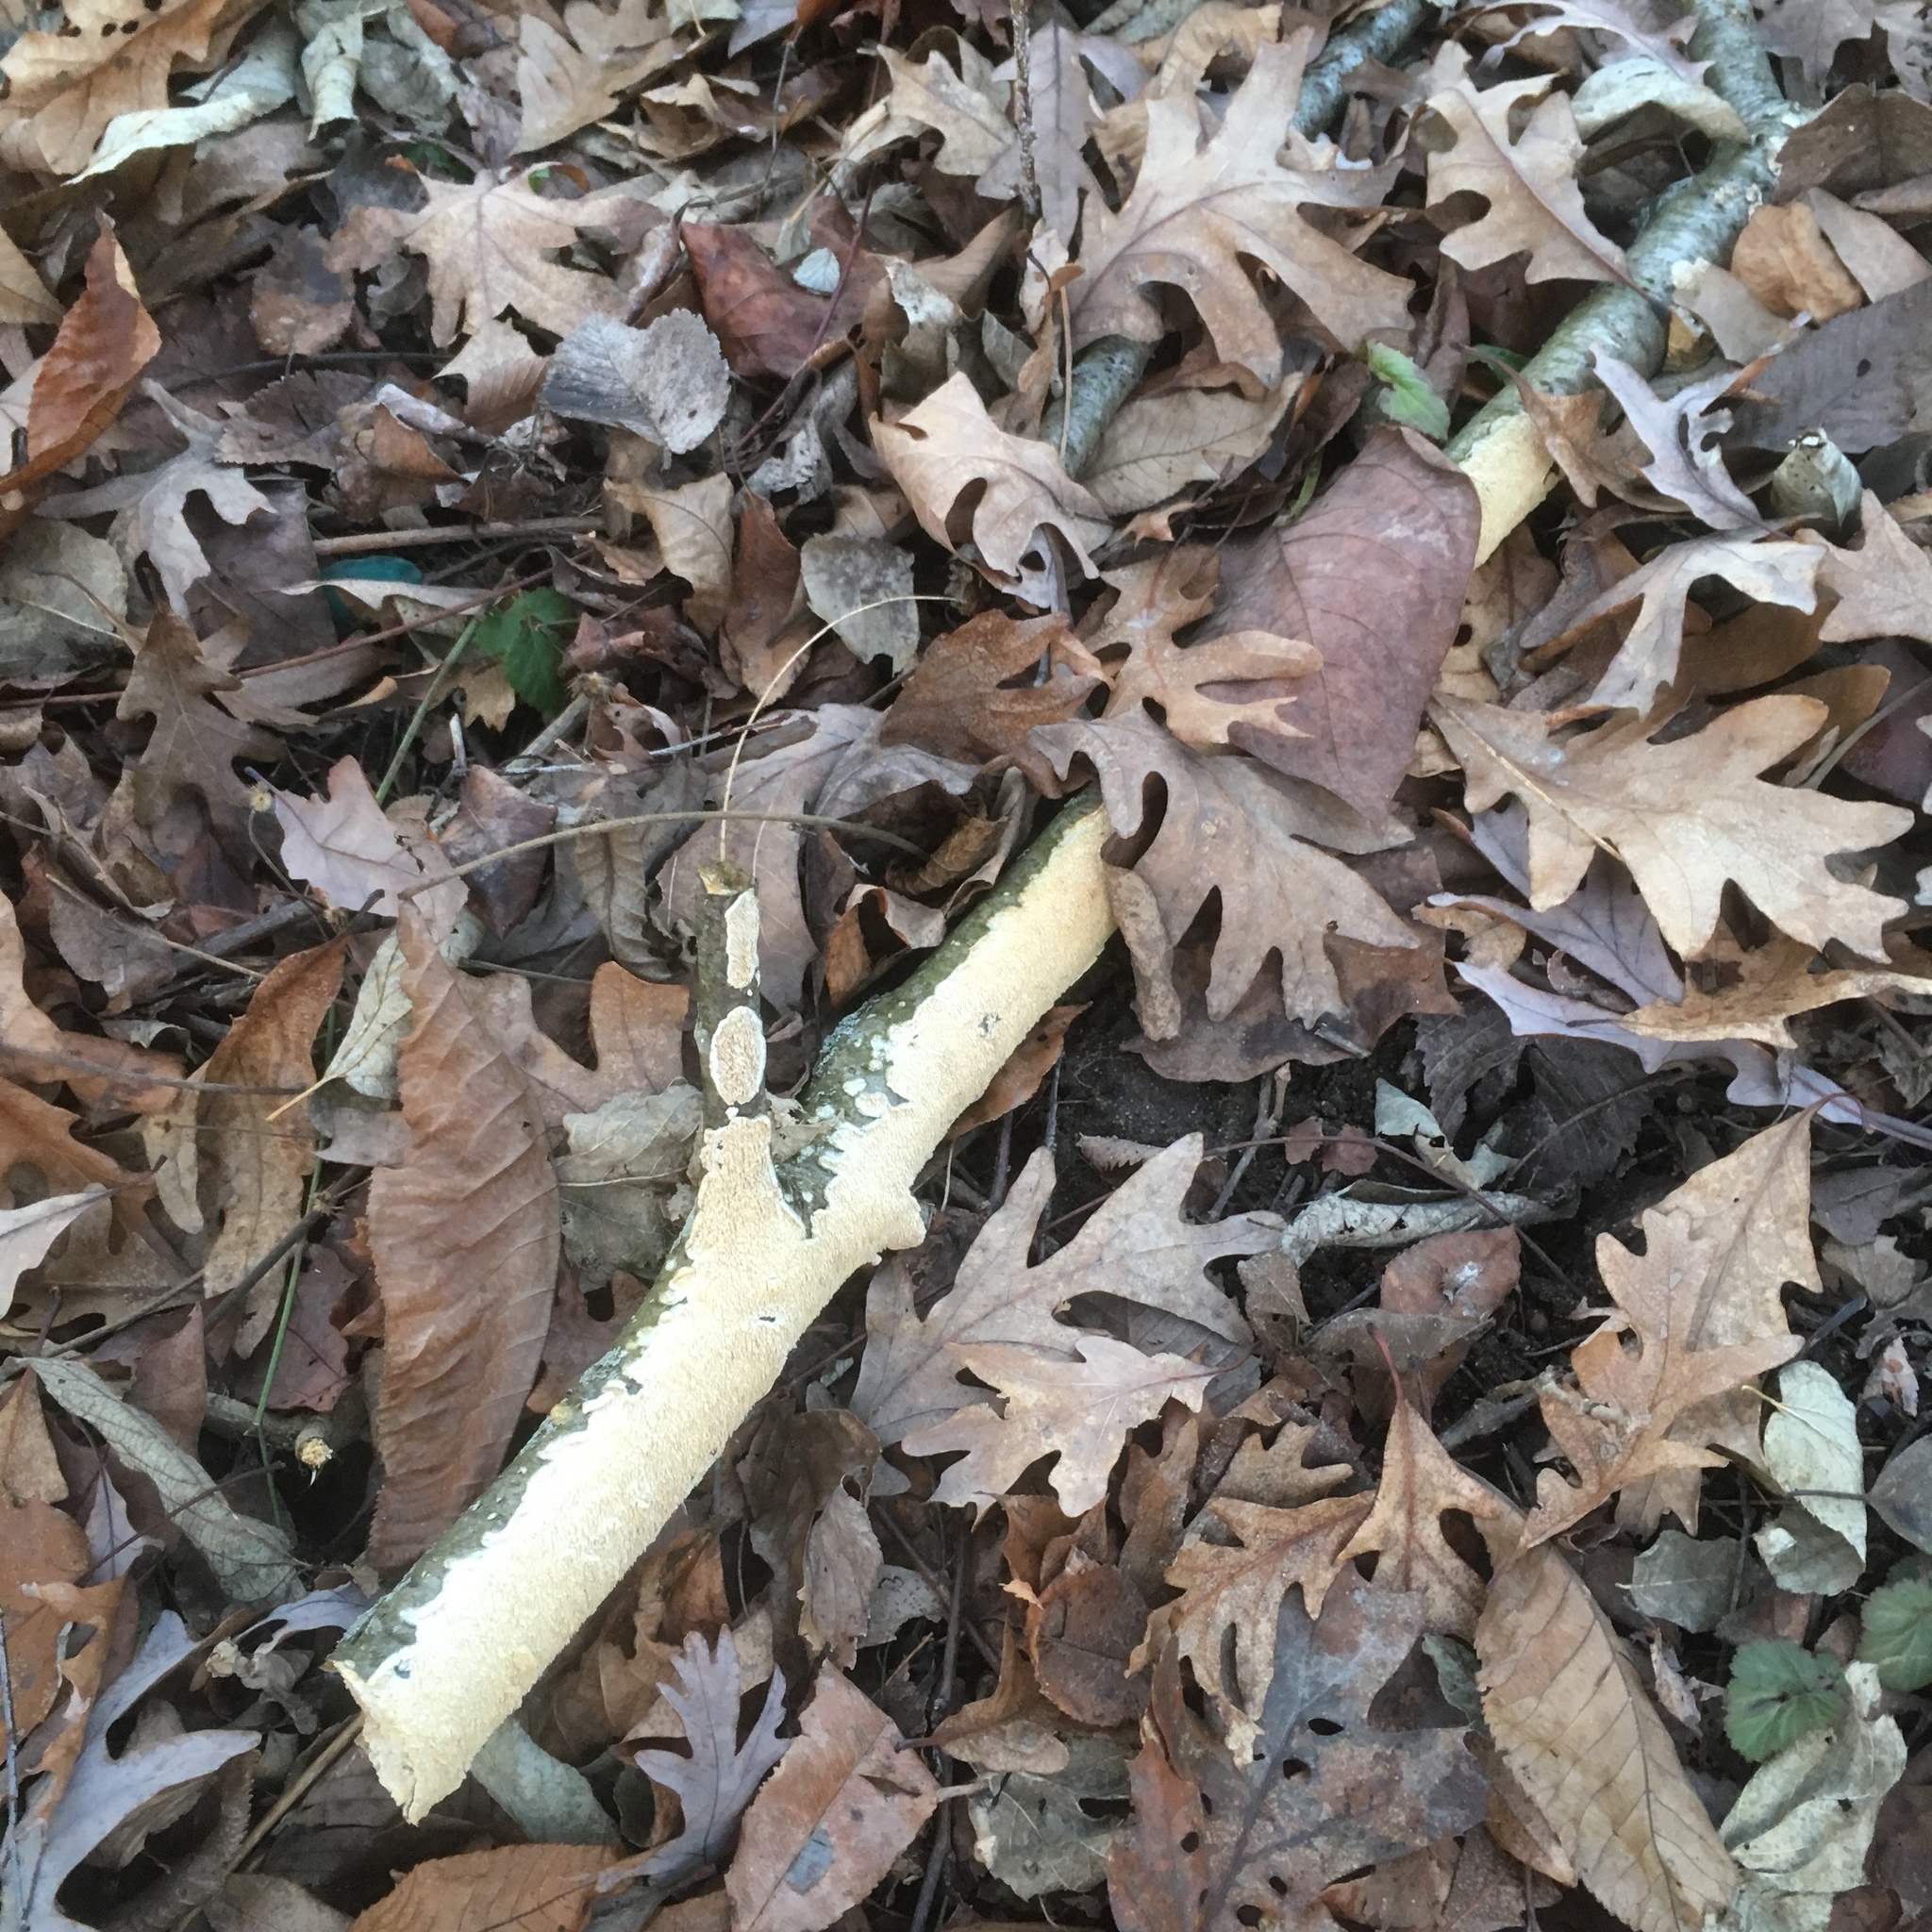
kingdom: Fungi
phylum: Basidiomycota
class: Agaricomycetes
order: Polyporales
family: Irpicaceae
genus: Irpex
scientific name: Irpex lacteus
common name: Milk-white toothed polypore
